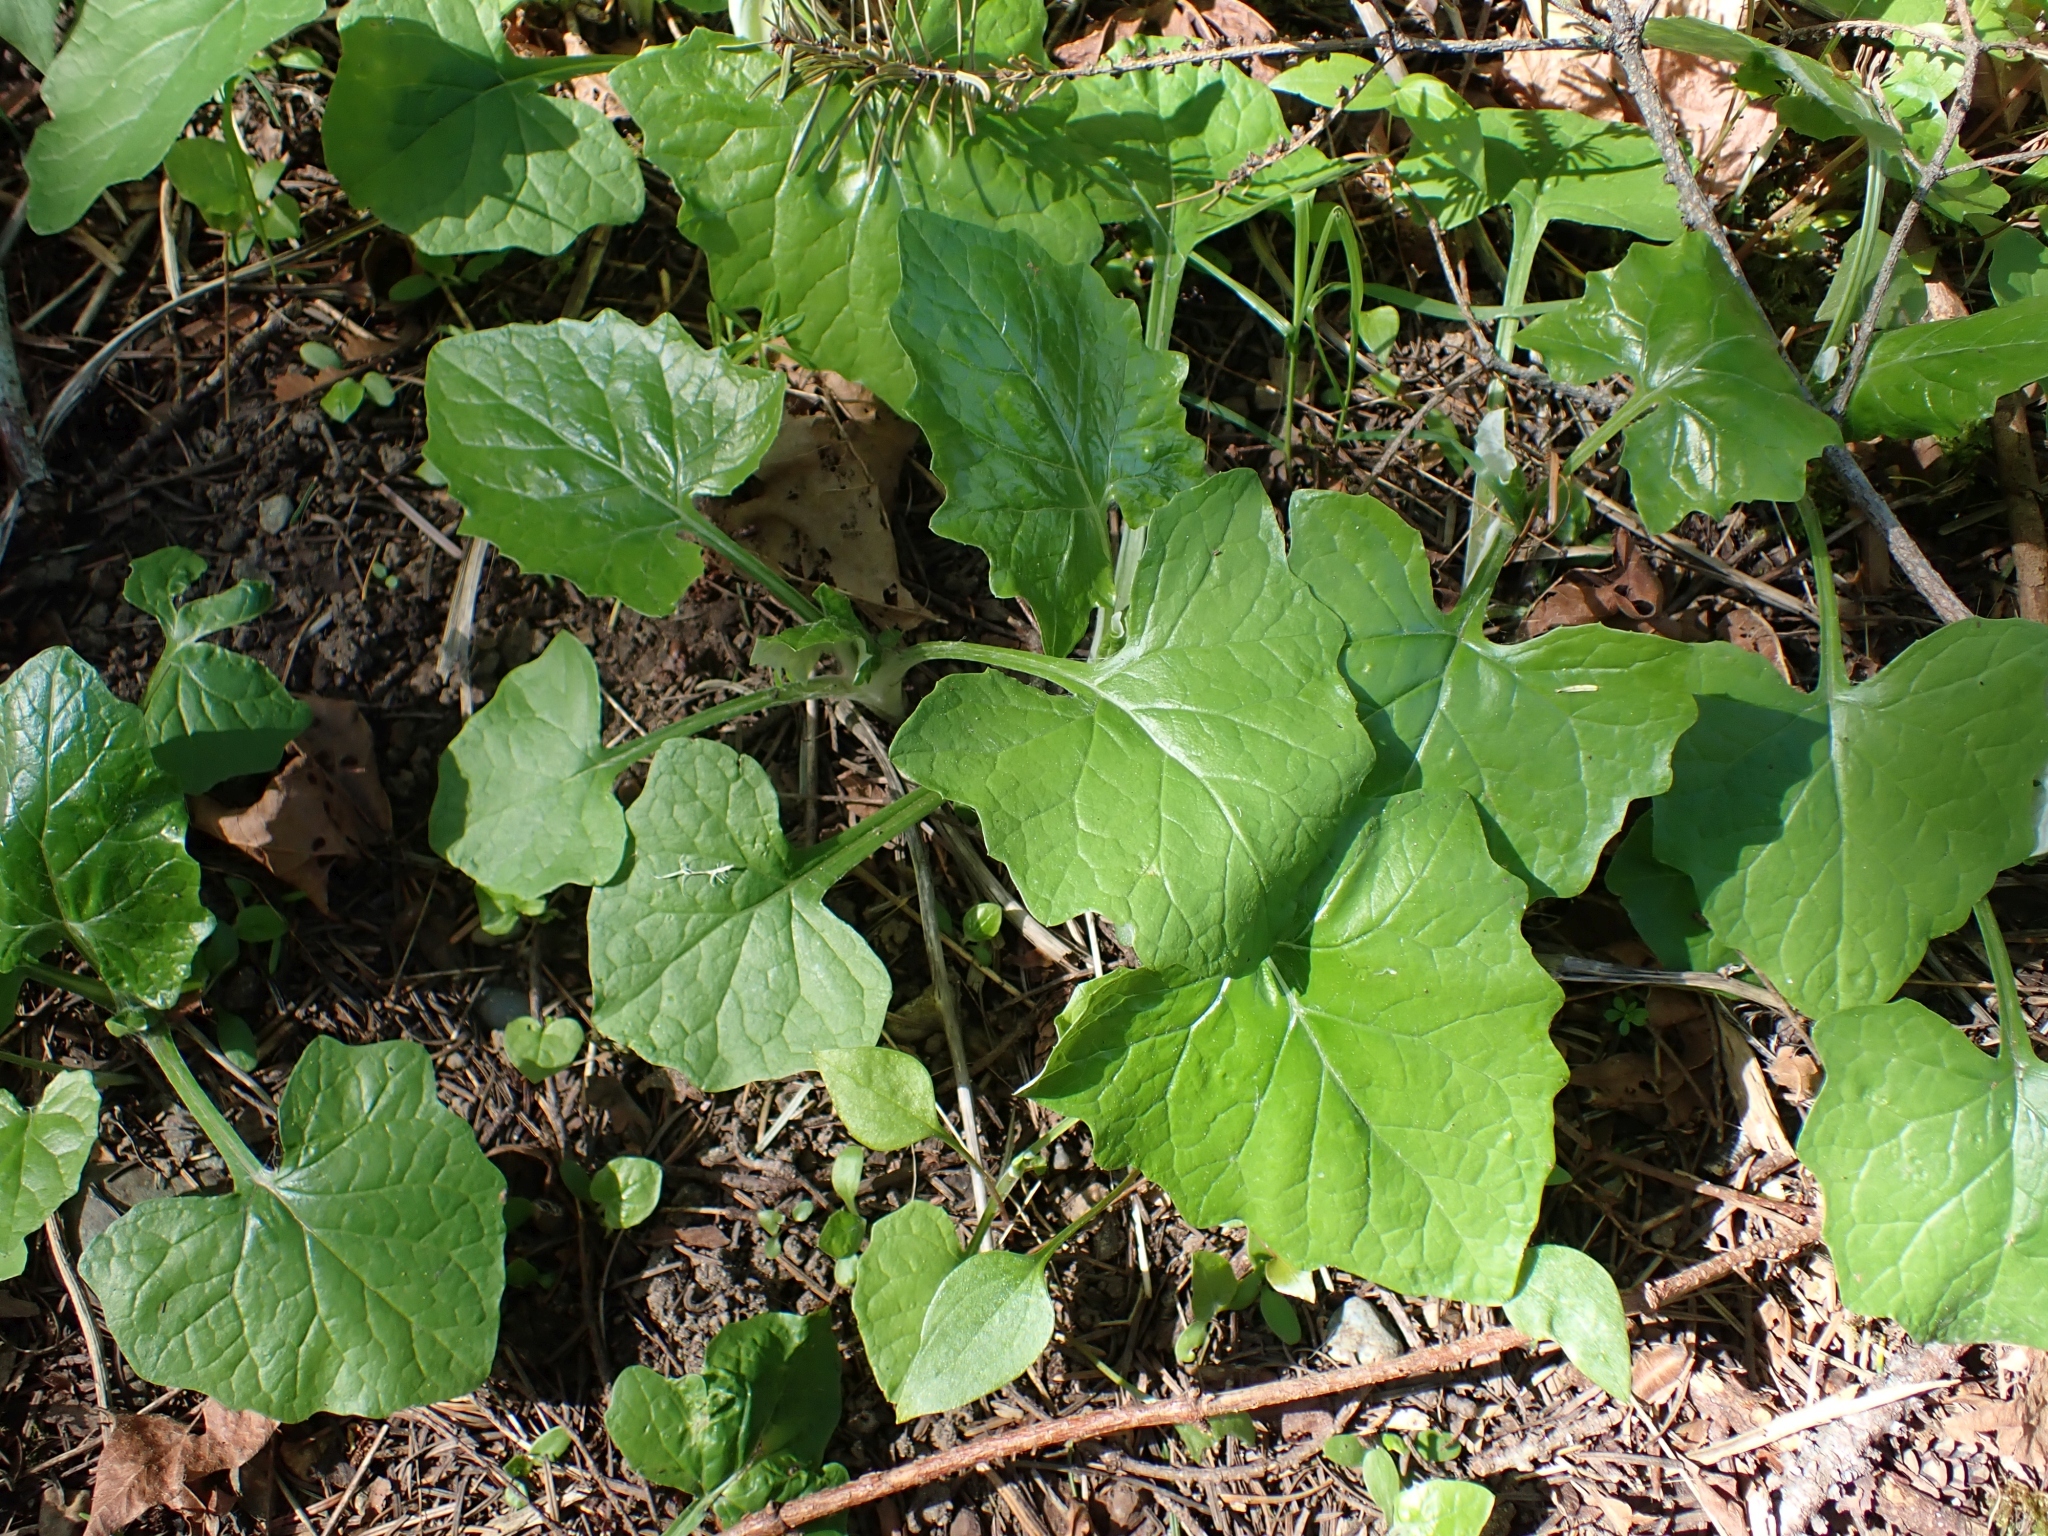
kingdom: Plantae
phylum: Tracheophyta
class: Magnoliopsida
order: Asterales
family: Asteraceae
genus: Adenocaulon
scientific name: Adenocaulon bicolor
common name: Trailplant
